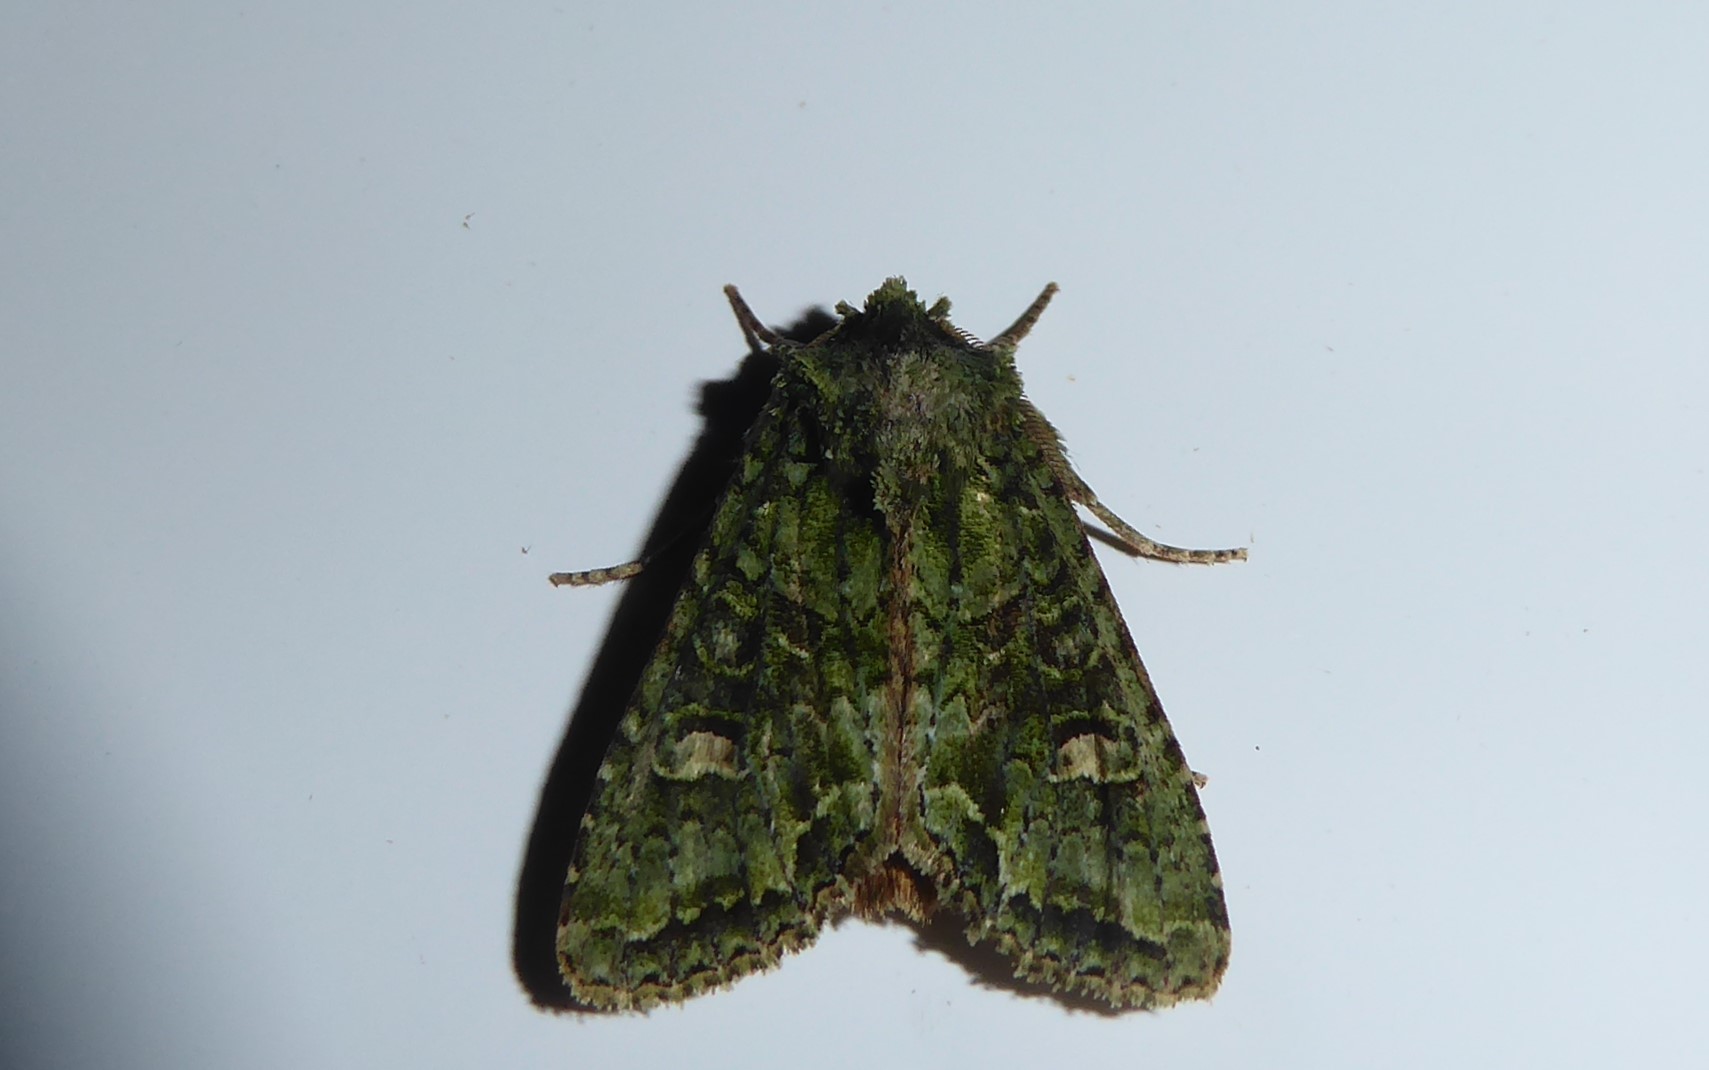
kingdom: Animalia
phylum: Arthropoda
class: Insecta
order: Lepidoptera
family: Noctuidae
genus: Ichneutica
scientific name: Ichneutica
